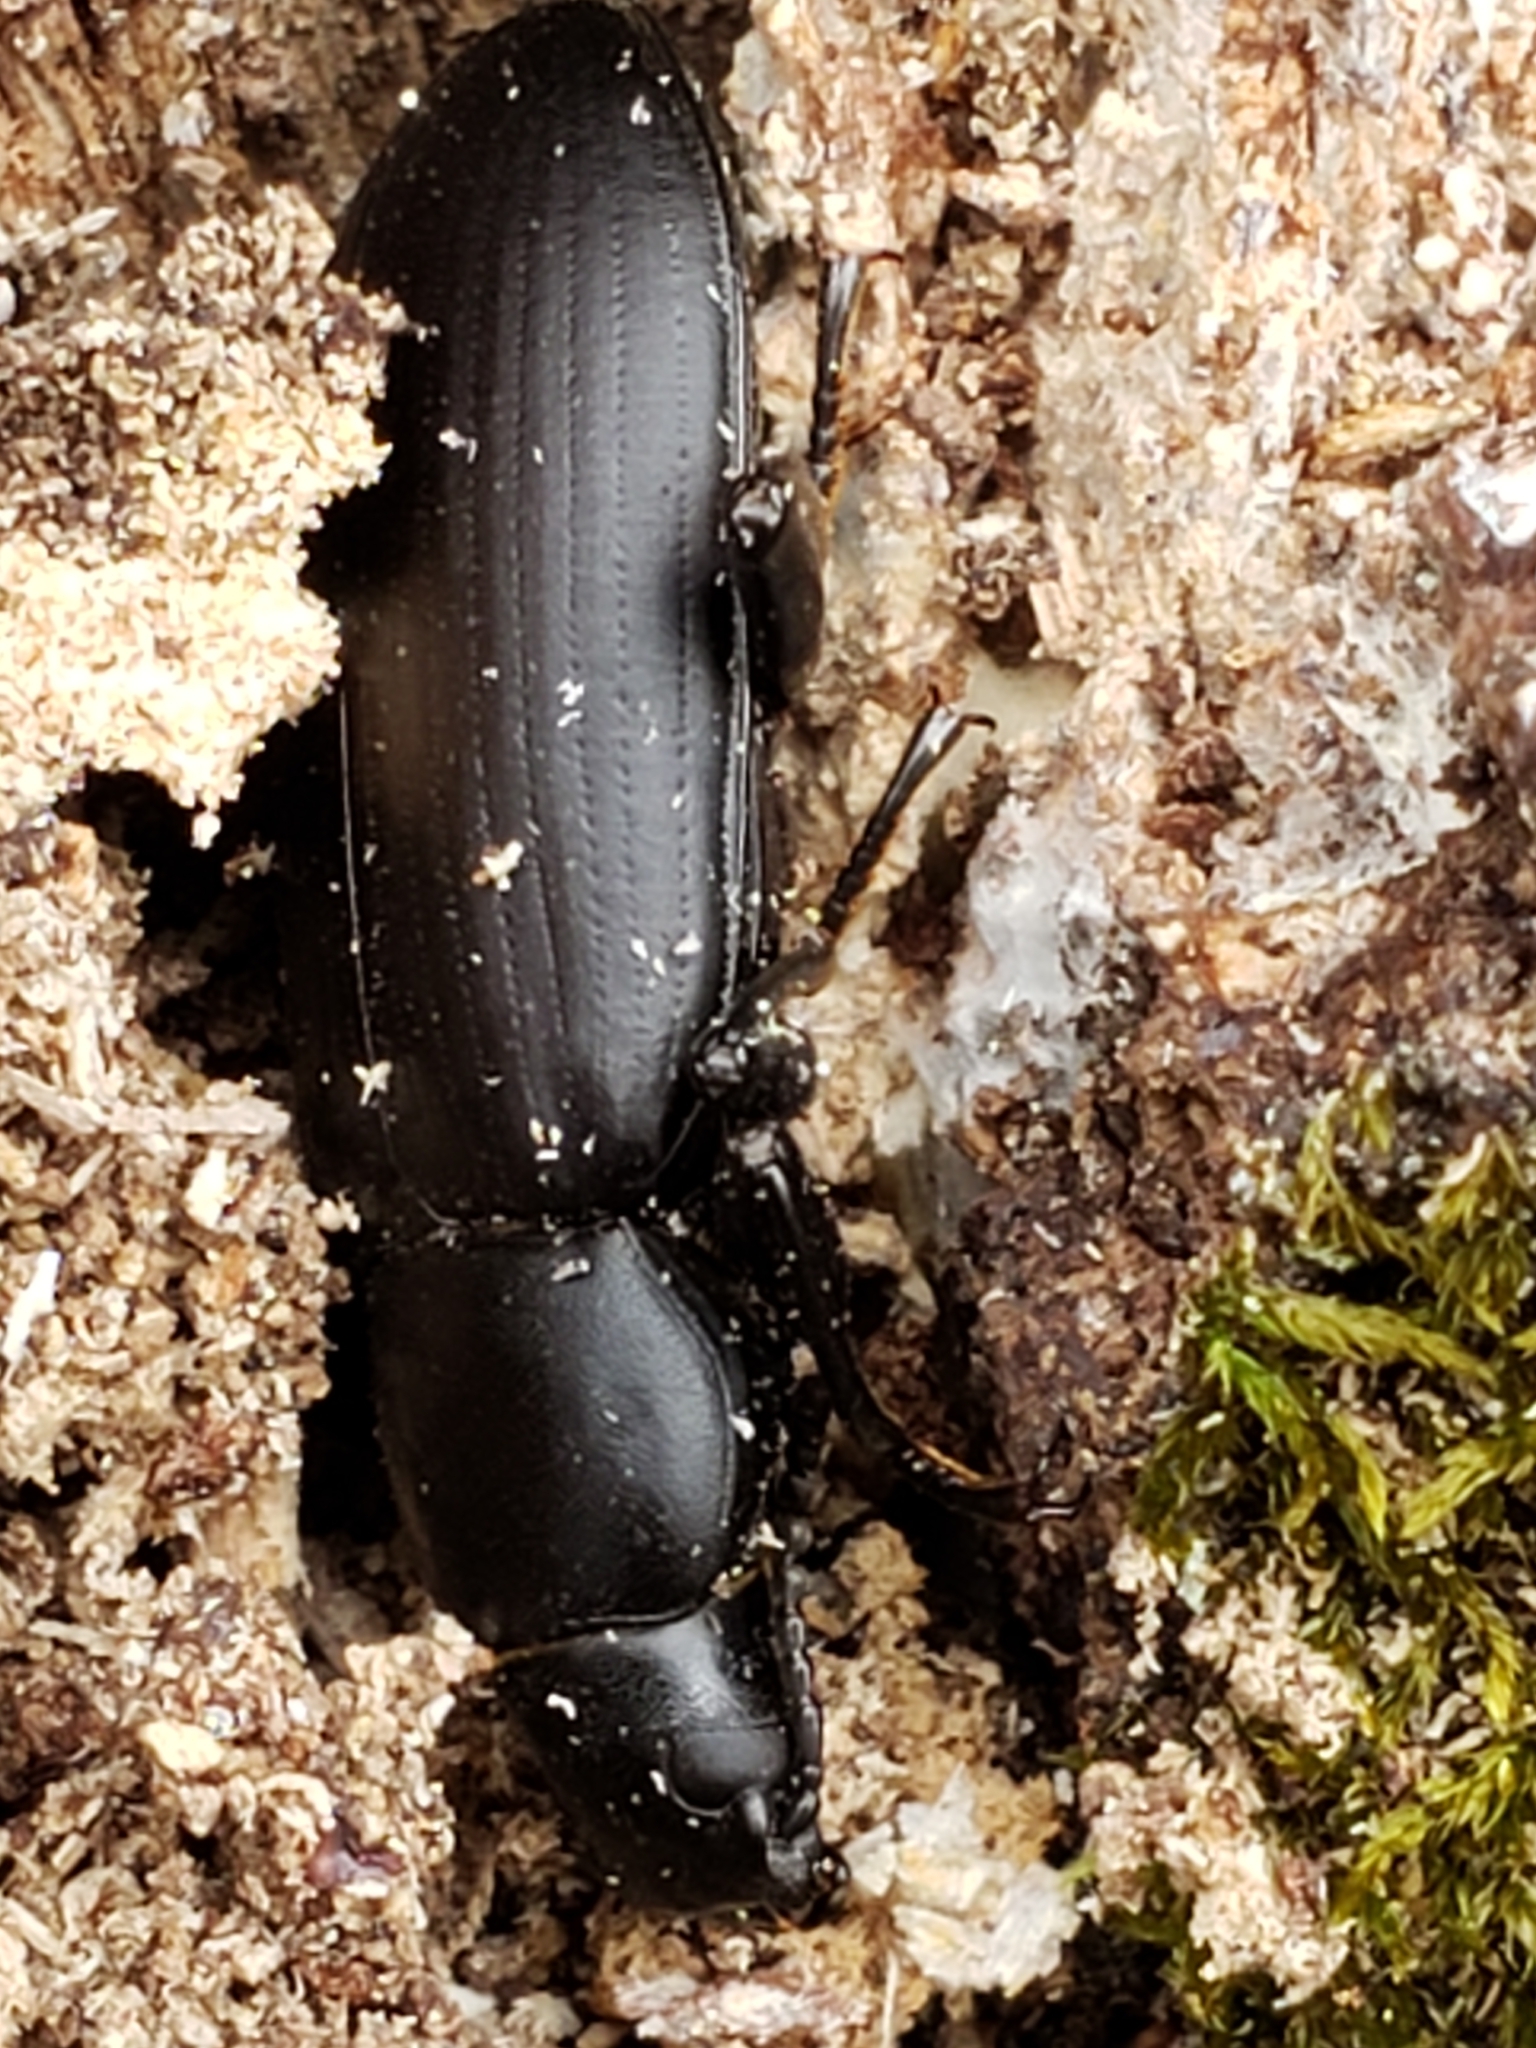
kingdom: Animalia
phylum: Arthropoda
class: Insecta
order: Coleoptera
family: Tenebrionidae
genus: Alobates
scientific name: Alobates
